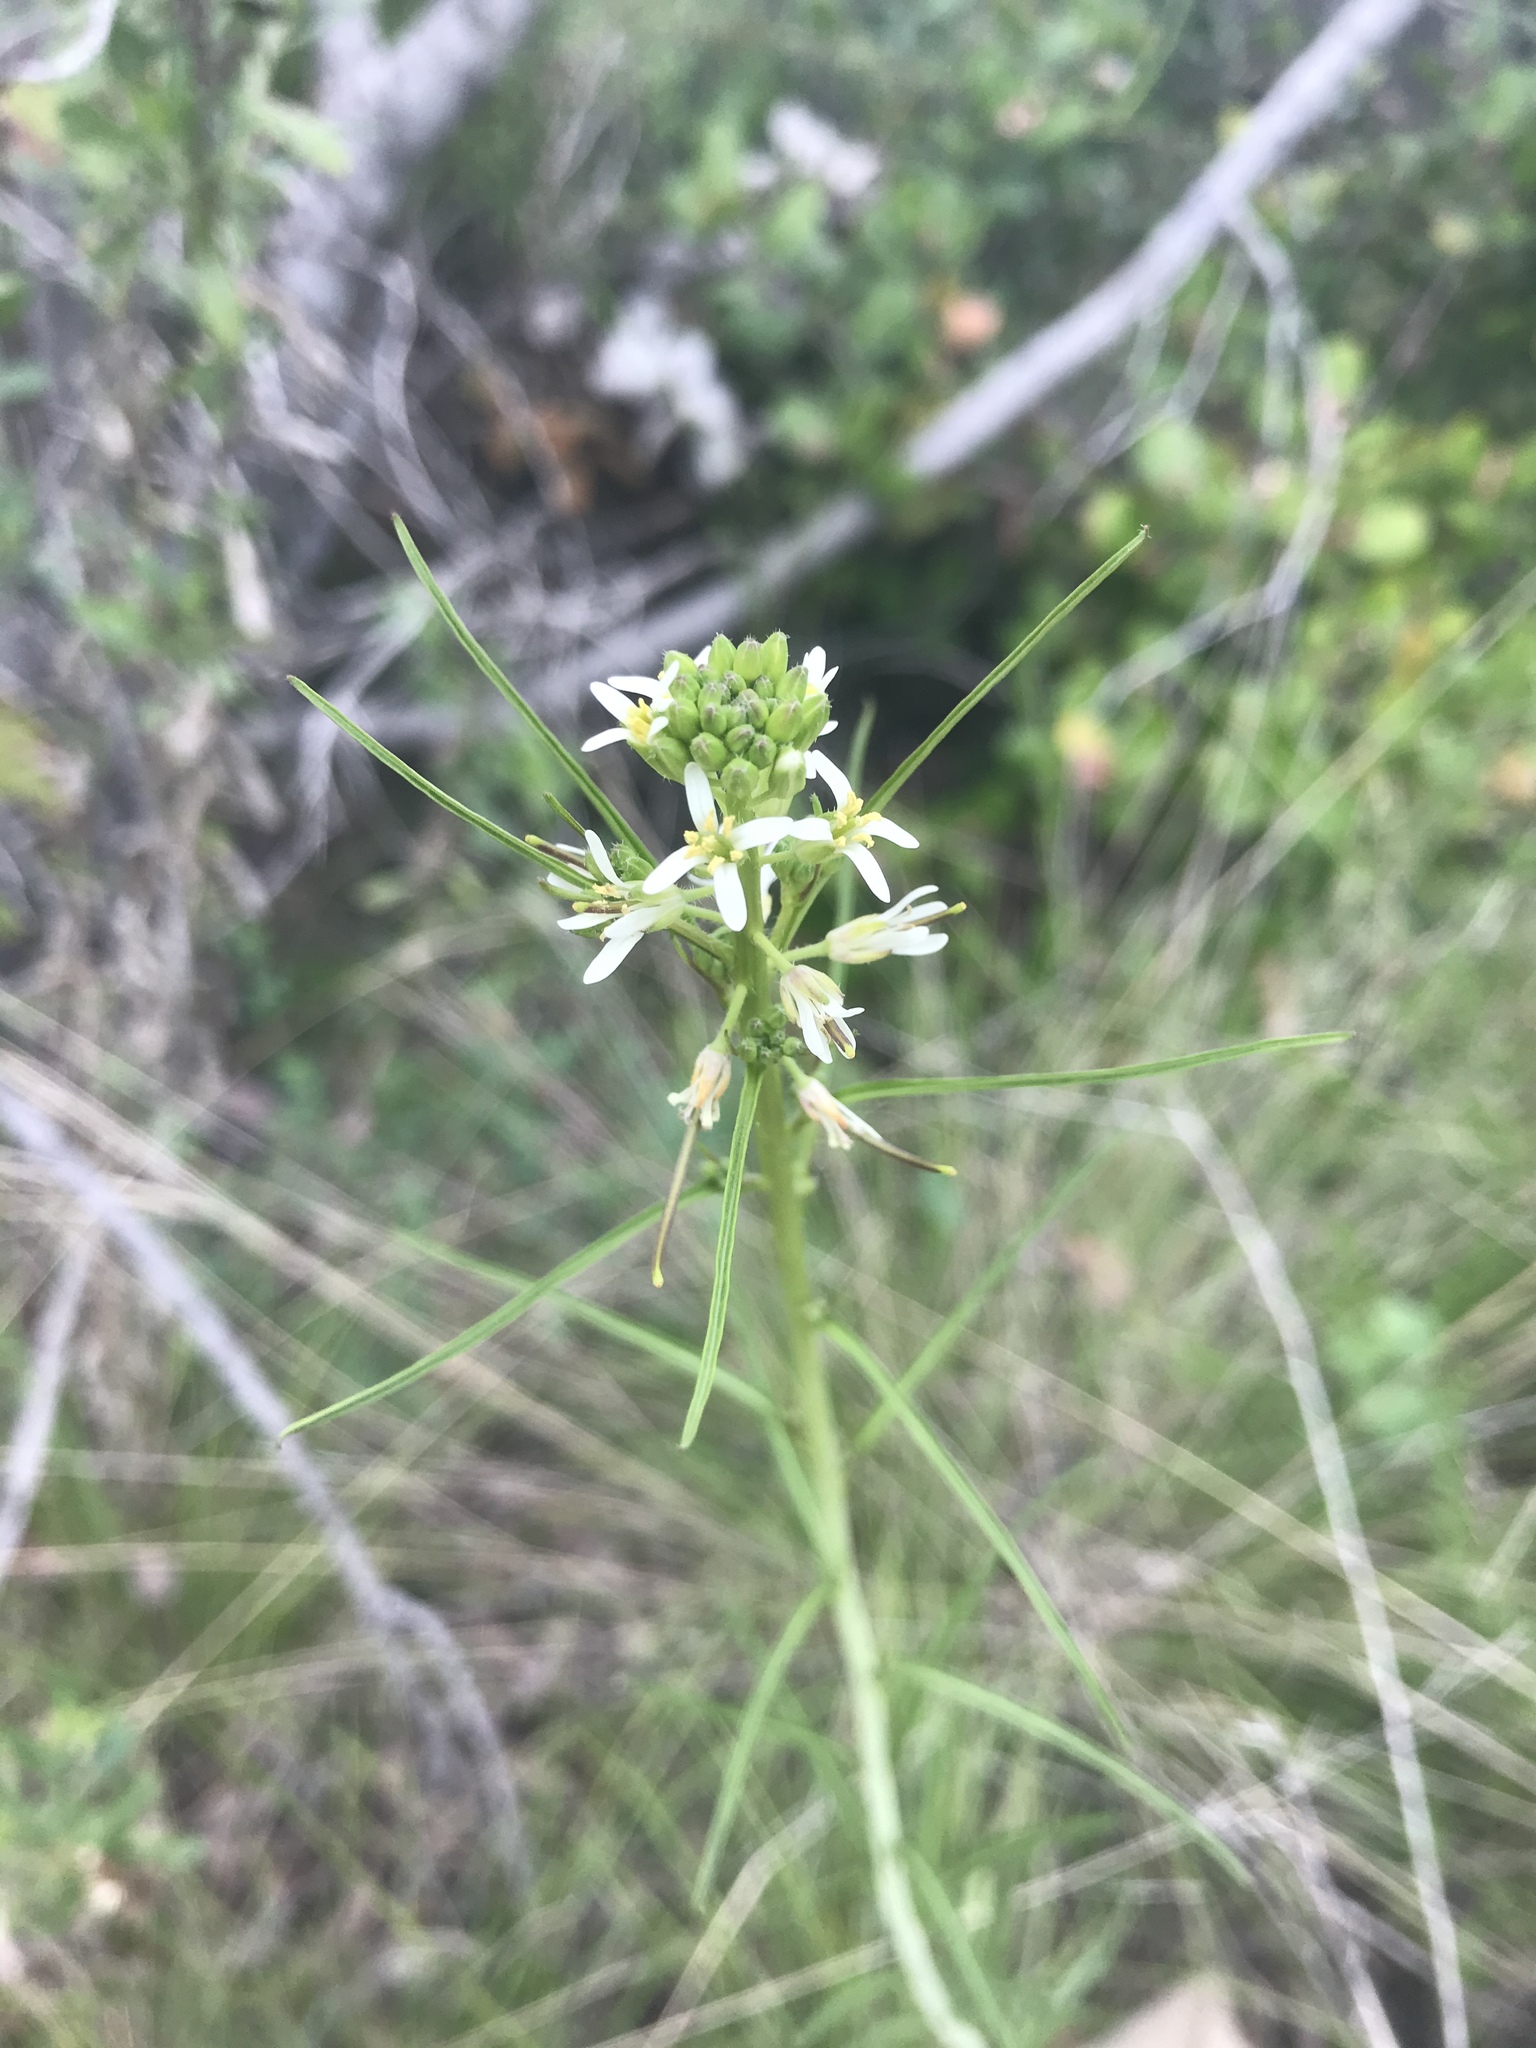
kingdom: Plantae
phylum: Tracheophyta
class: Magnoliopsida
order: Brassicales
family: Brassicaceae
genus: Streptanthus
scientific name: Streptanthus lasiophyllus
